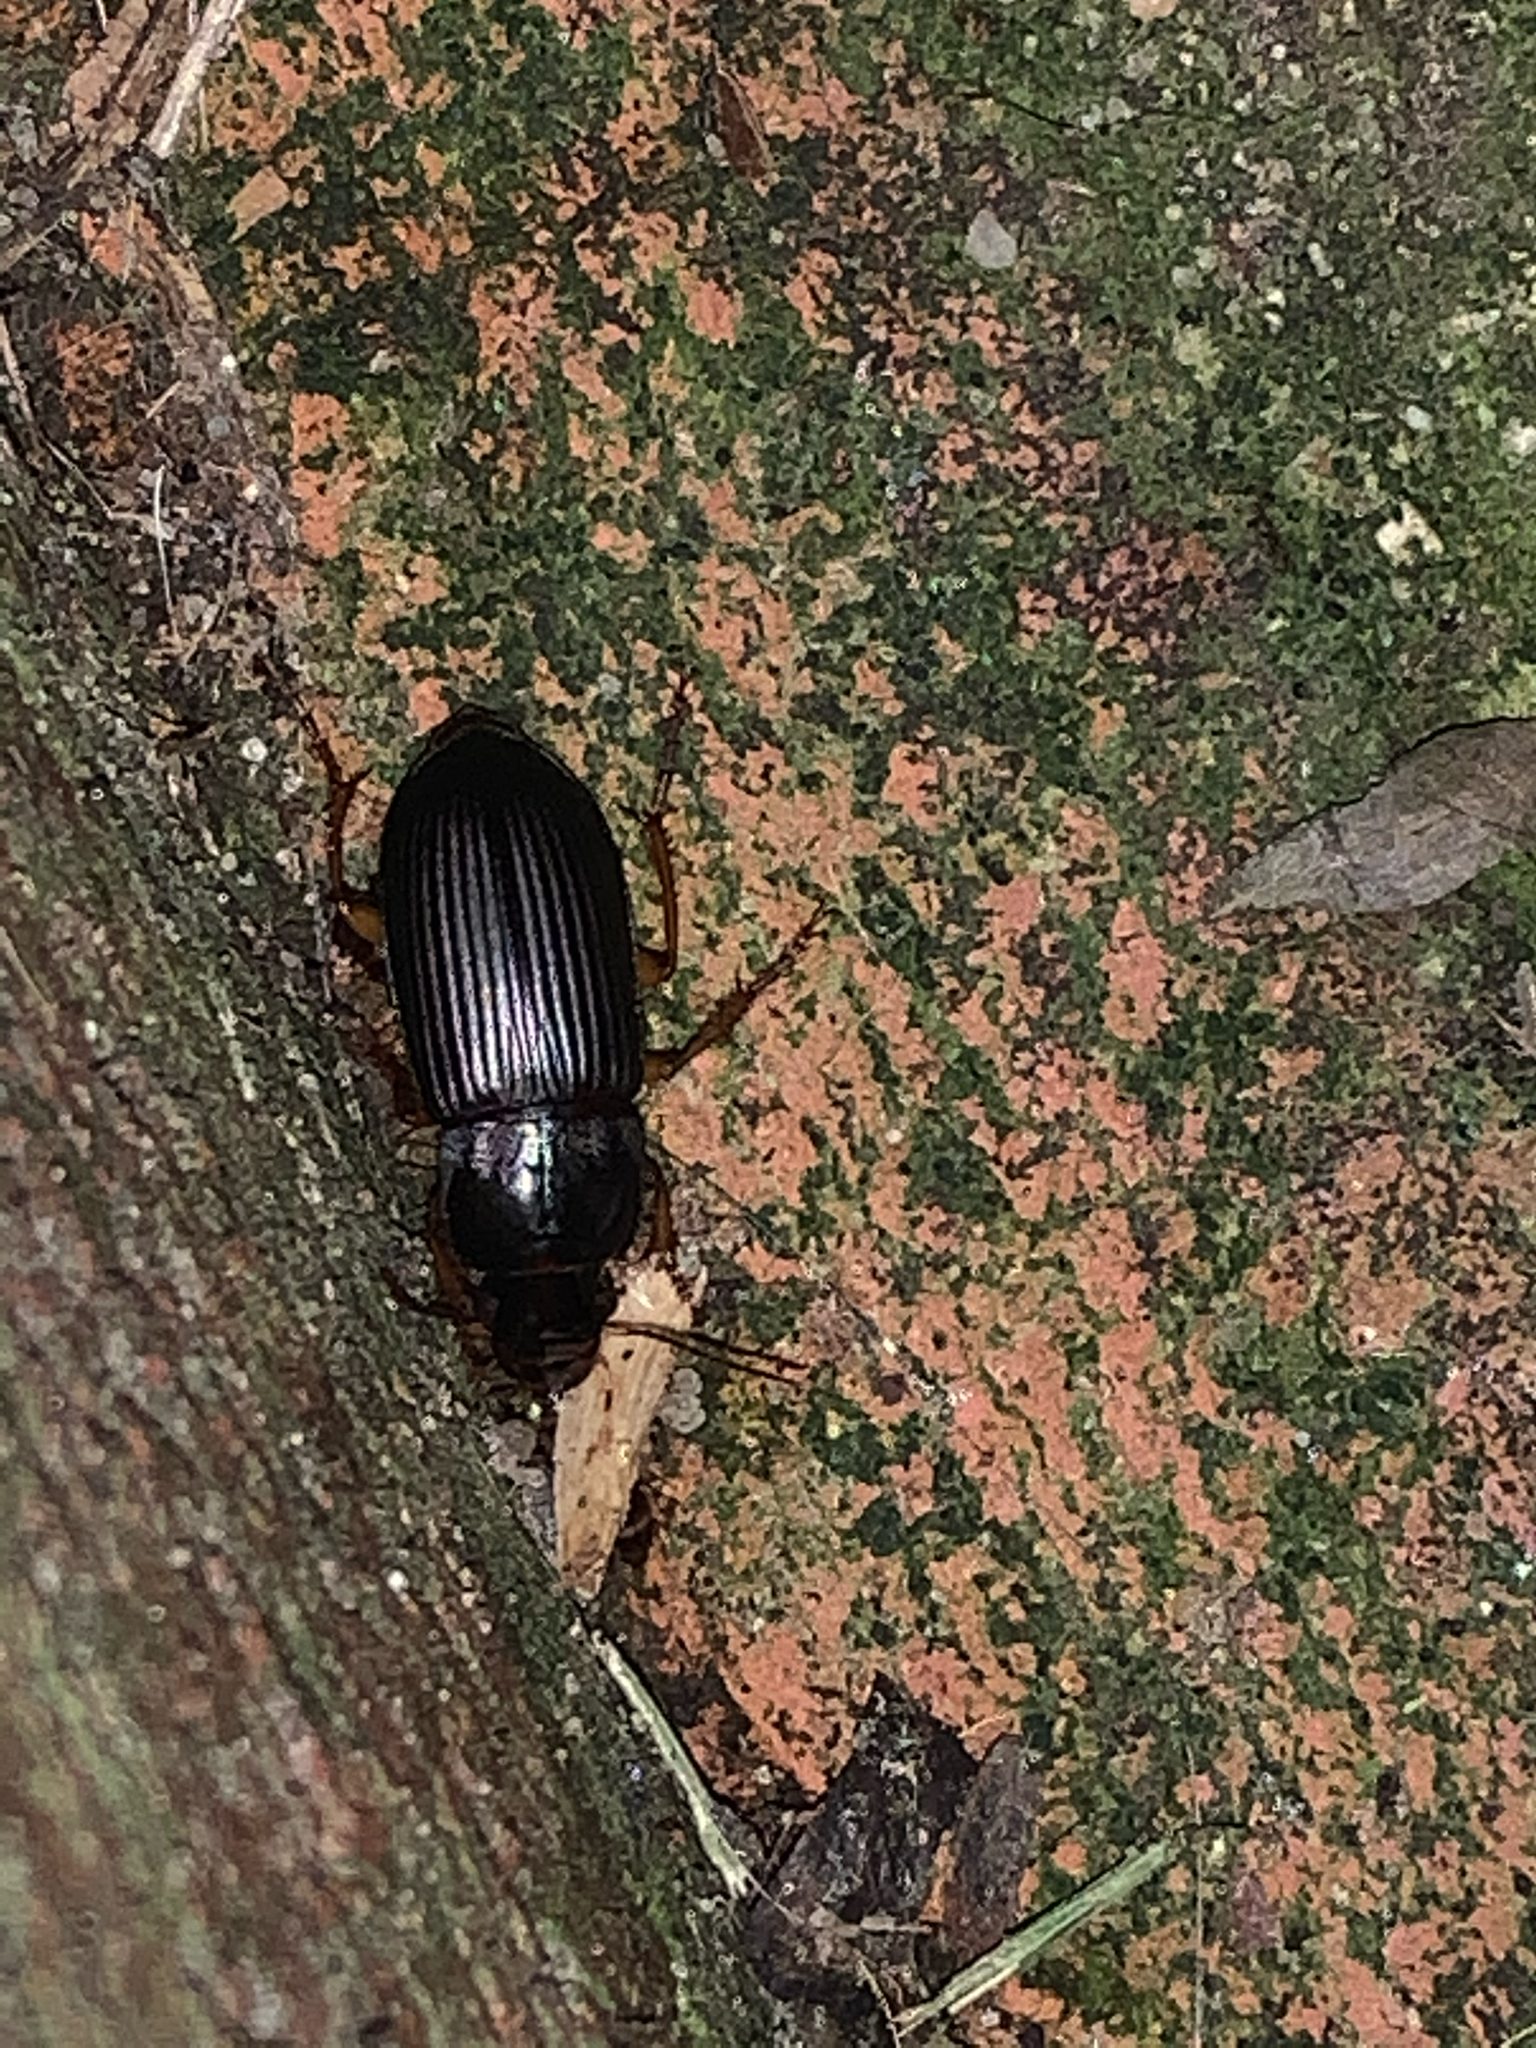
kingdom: Animalia
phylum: Arthropoda
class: Insecta
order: Coleoptera
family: Carabidae
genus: Harpalus
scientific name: Harpalus
